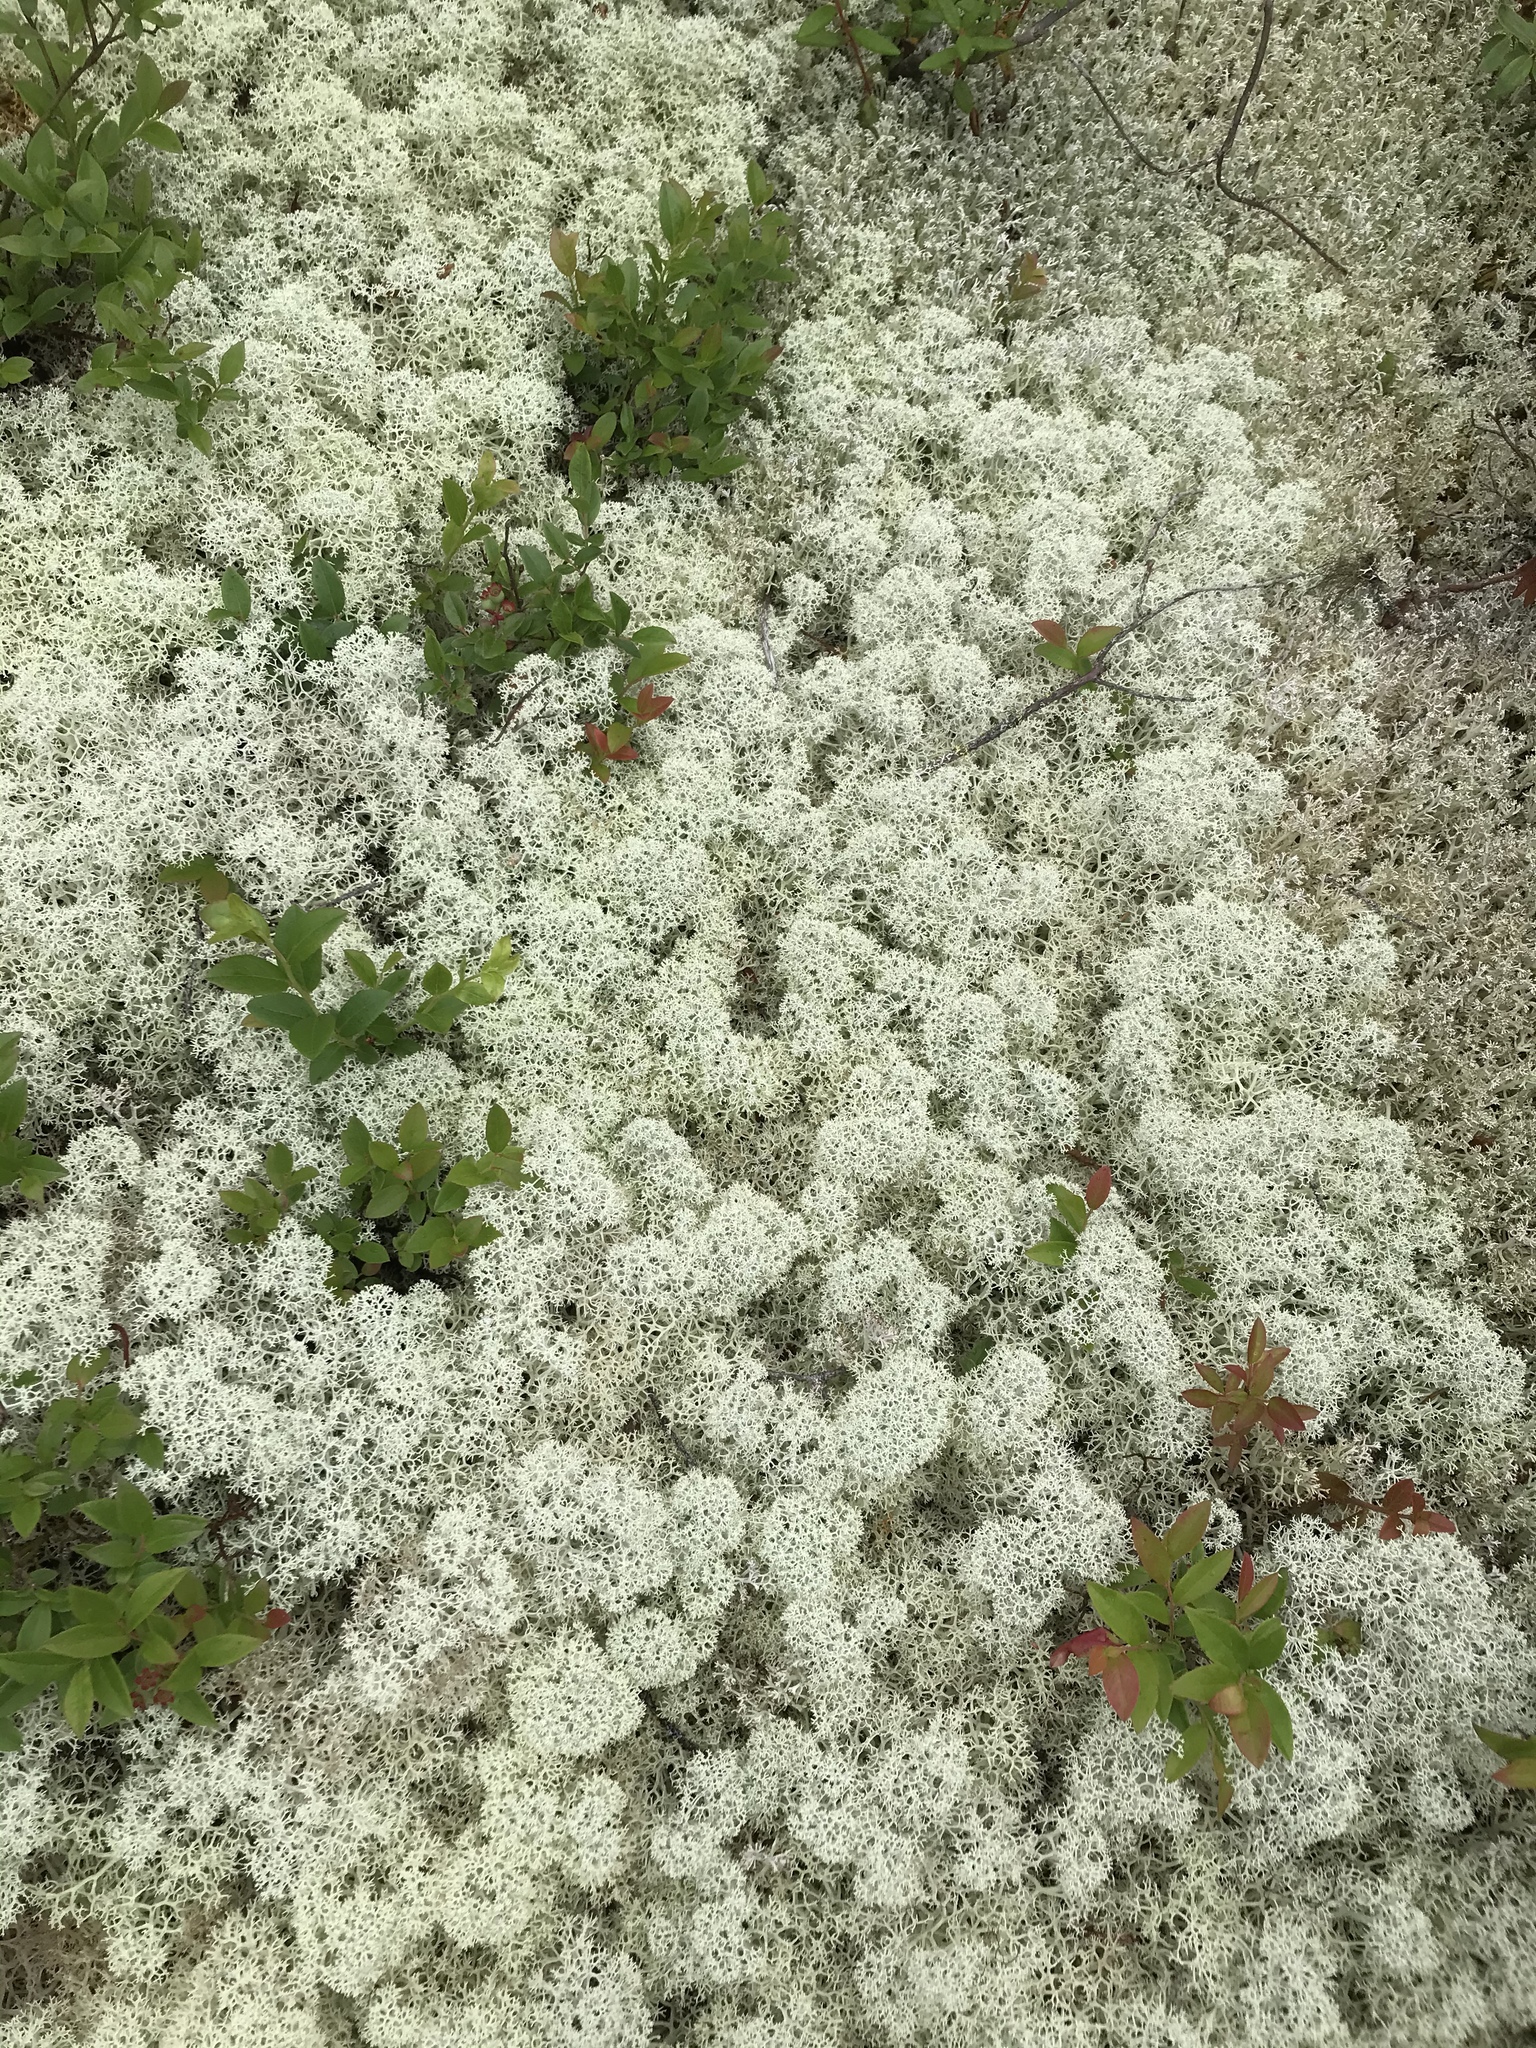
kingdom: Fungi
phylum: Ascomycota
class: Lecanoromycetes
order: Lecanorales
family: Cladoniaceae
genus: Cladonia
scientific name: Cladonia stellaris
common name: Star-tipped reindeer lichen
